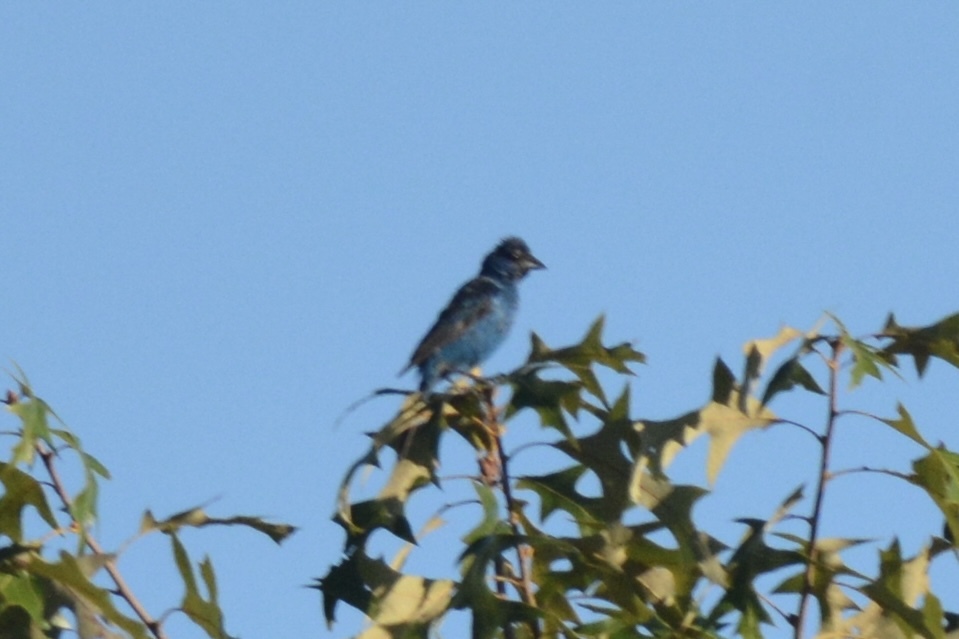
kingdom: Animalia
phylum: Chordata
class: Aves
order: Passeriformes
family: Cardinalidae
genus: Passerina
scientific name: Passerina cyanea
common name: Indigo bunting
